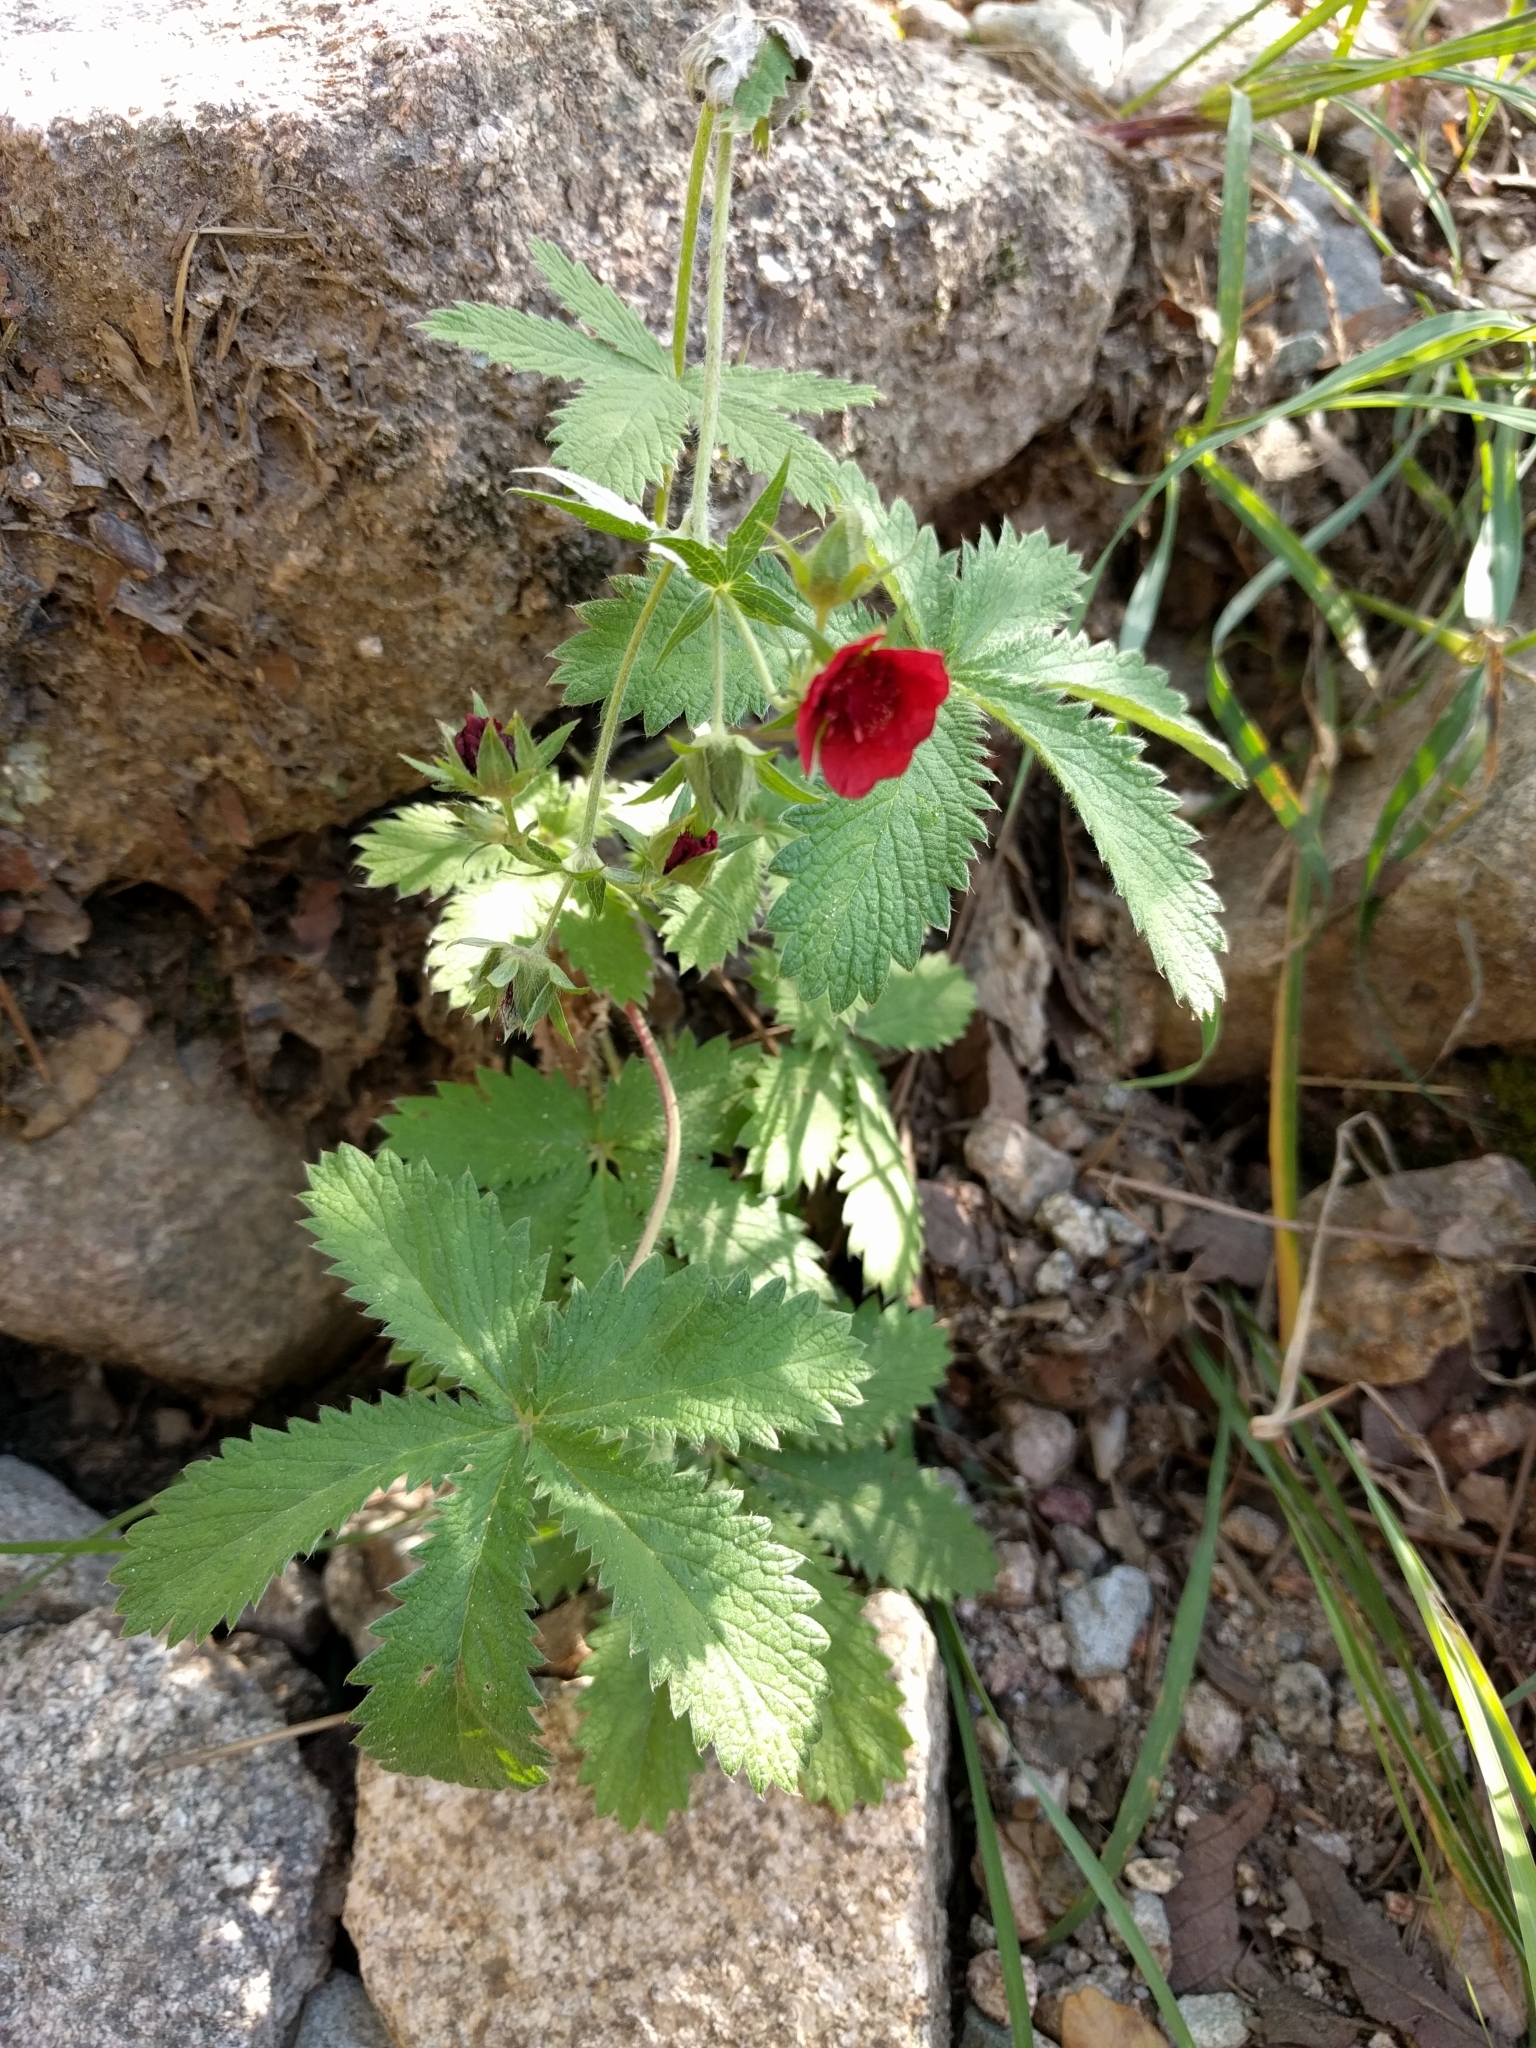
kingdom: Plantae
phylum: Tracheophyta
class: Magnoliopsida
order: Rosales
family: Rosaceae
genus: Potentilla
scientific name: Potentilla thurberi
